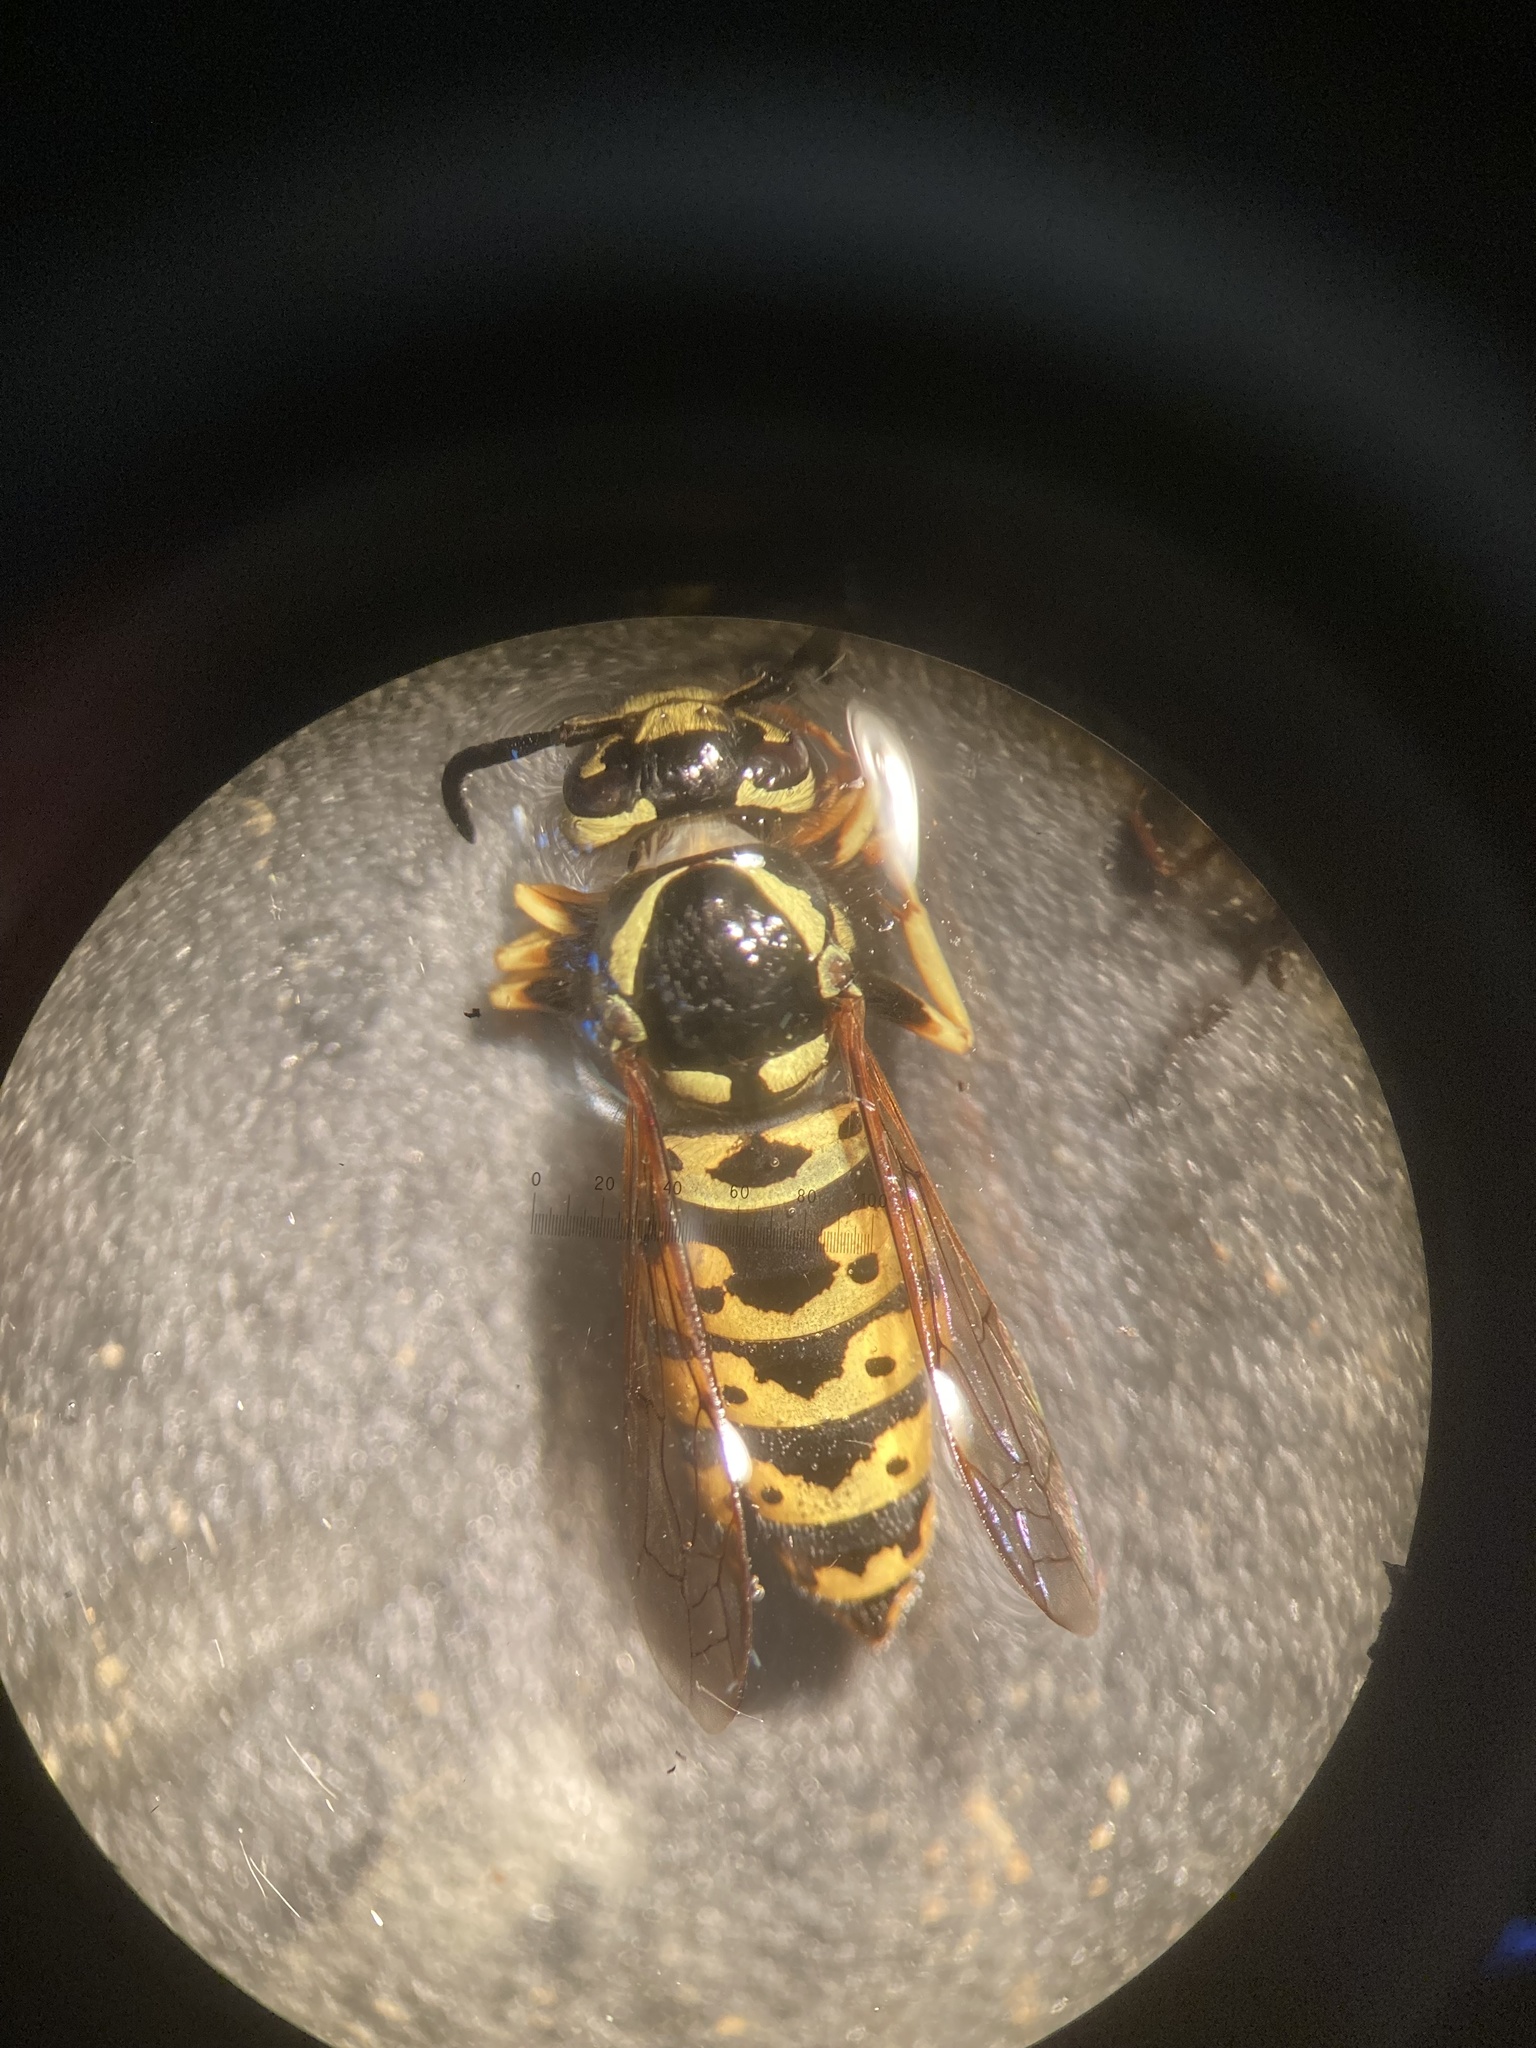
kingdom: Animalia
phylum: Arthropoda
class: Insecta
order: Hymenoptera
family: Vespidae
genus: Vespula
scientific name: Vespula atropilosa
